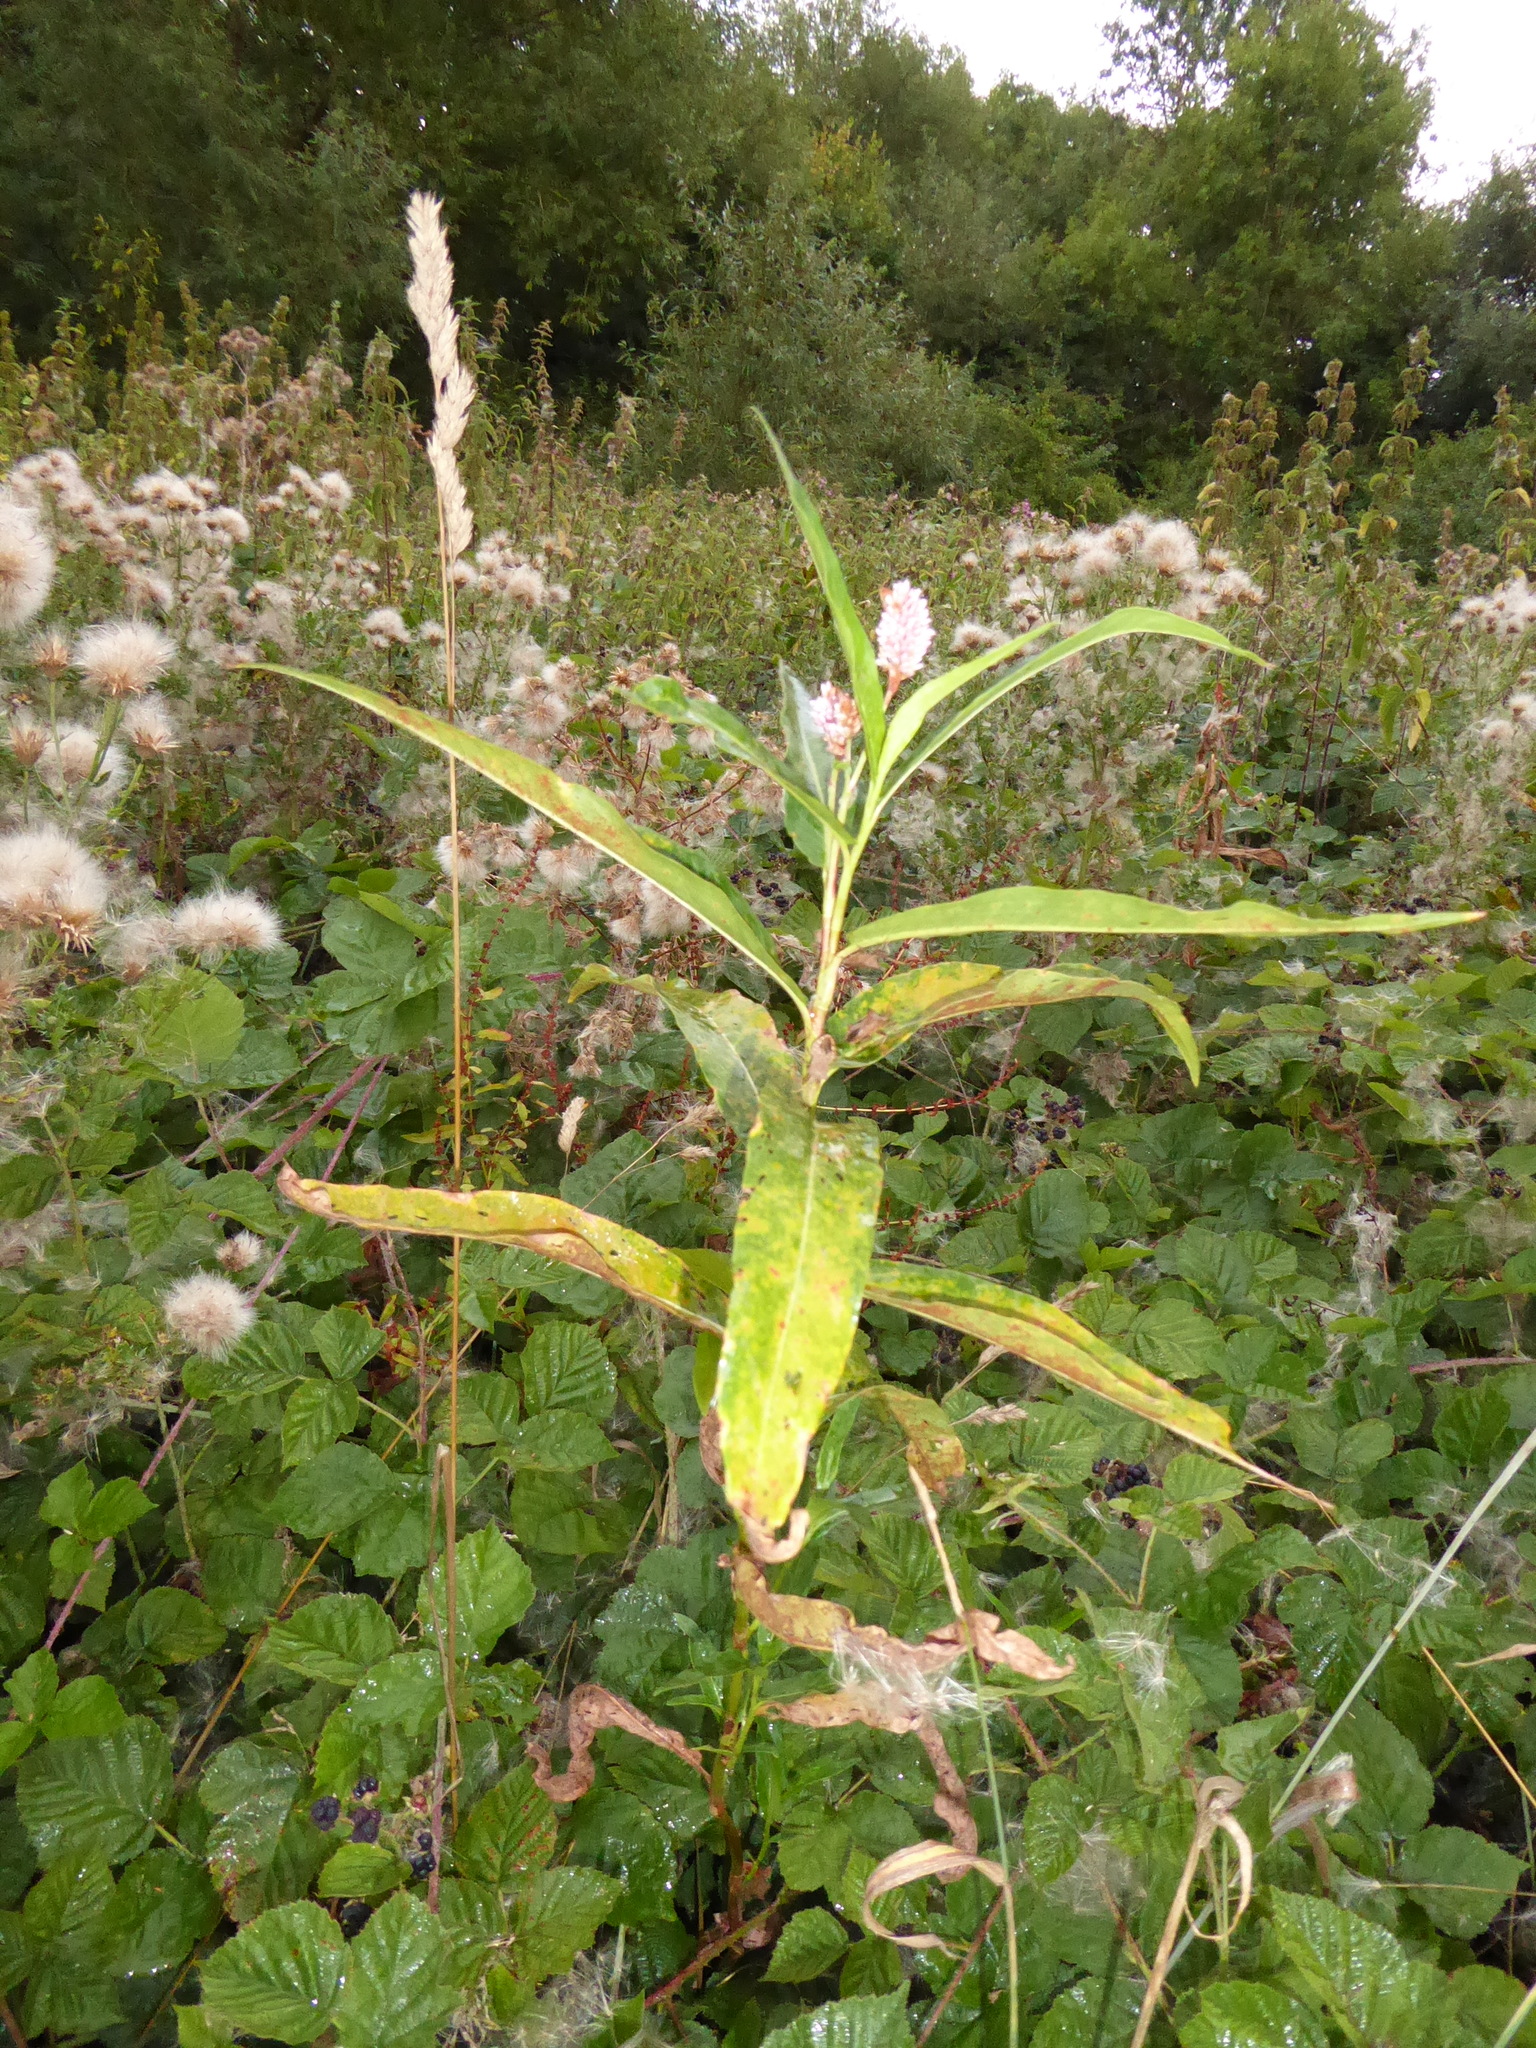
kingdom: Plantae
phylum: Tracheophyta
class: Magnoliopsida
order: Caryophyllales
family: Polygonaceae
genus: Persicaria
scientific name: Persicaria amphibia
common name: Amphibious bistort
